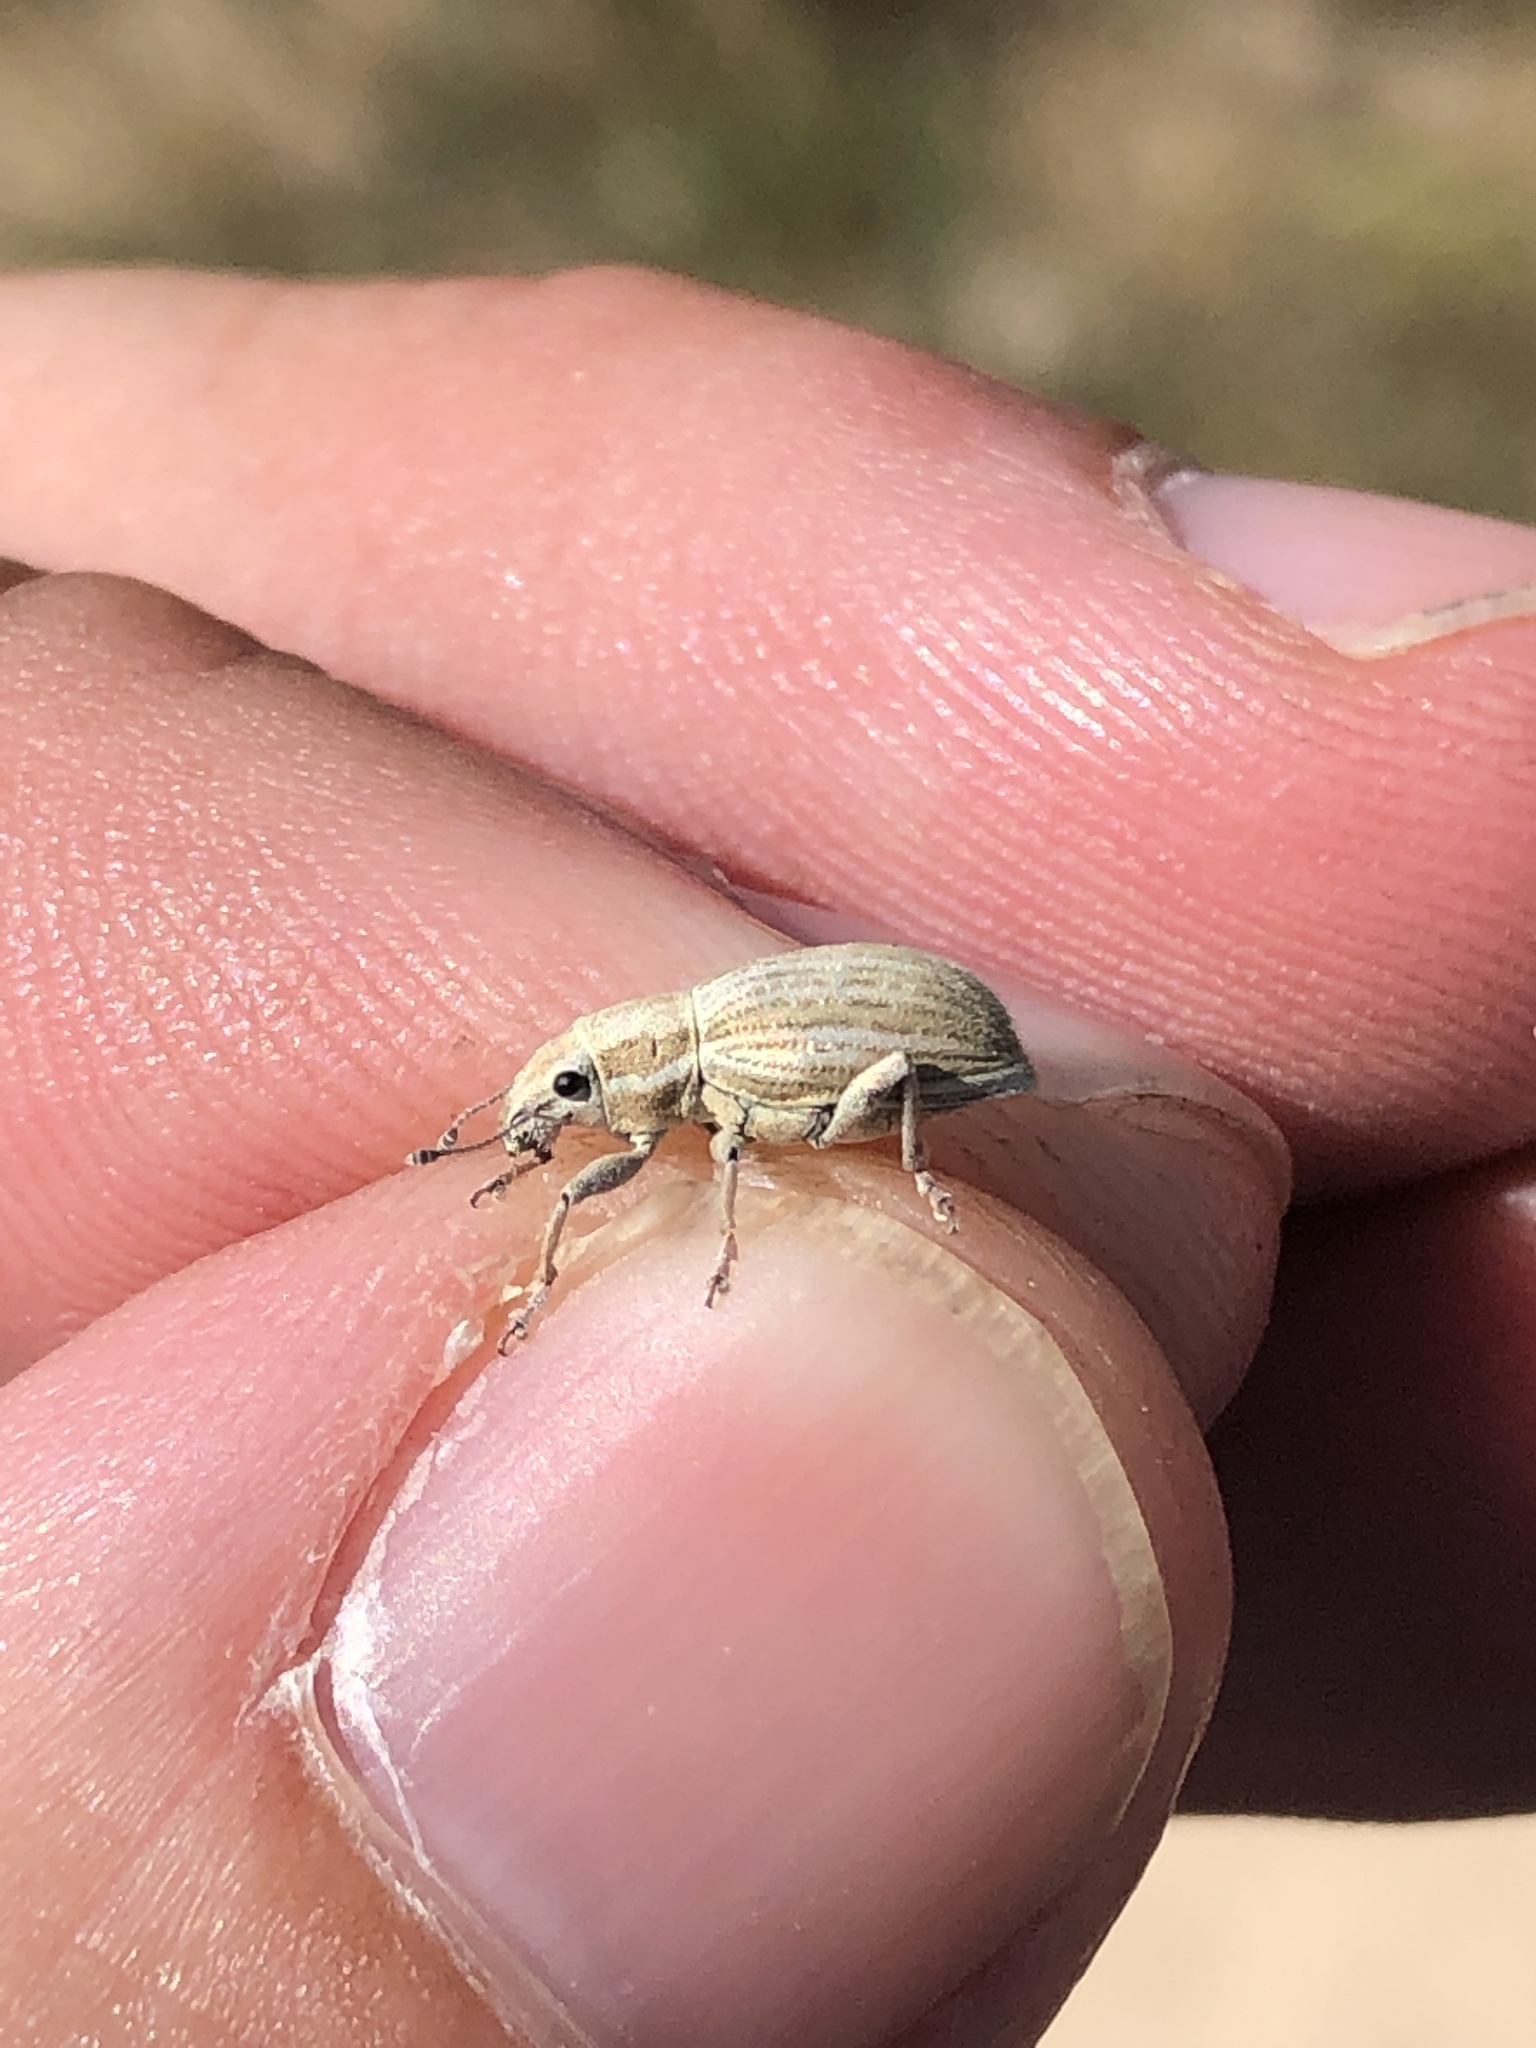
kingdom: Animalia
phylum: Arthropoda
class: Insecta
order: Coleoptera
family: Curculionidae
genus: Aramigus
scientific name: Aramigus tessellatus
